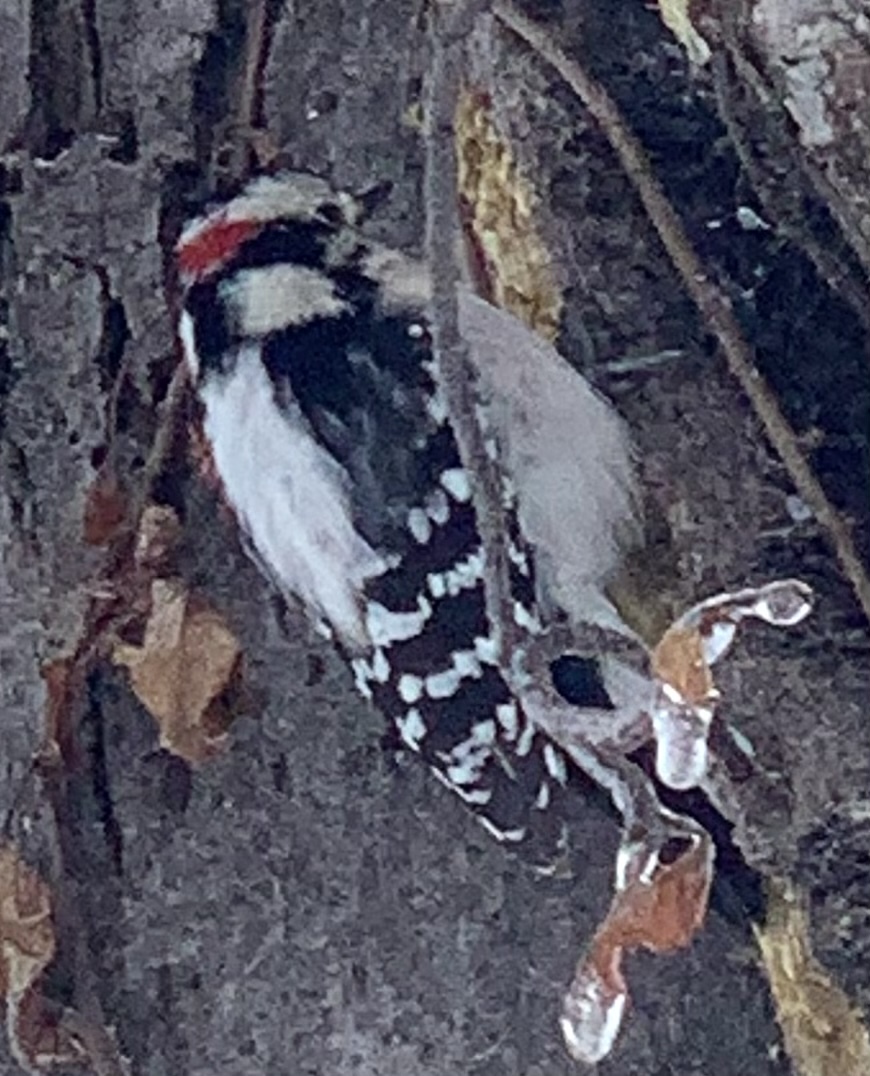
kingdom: Animalia
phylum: Chordata
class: Aves
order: Piciformes
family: Picidae
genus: Dryobates
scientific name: Dryobates pubescens
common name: Downy woodpecker
